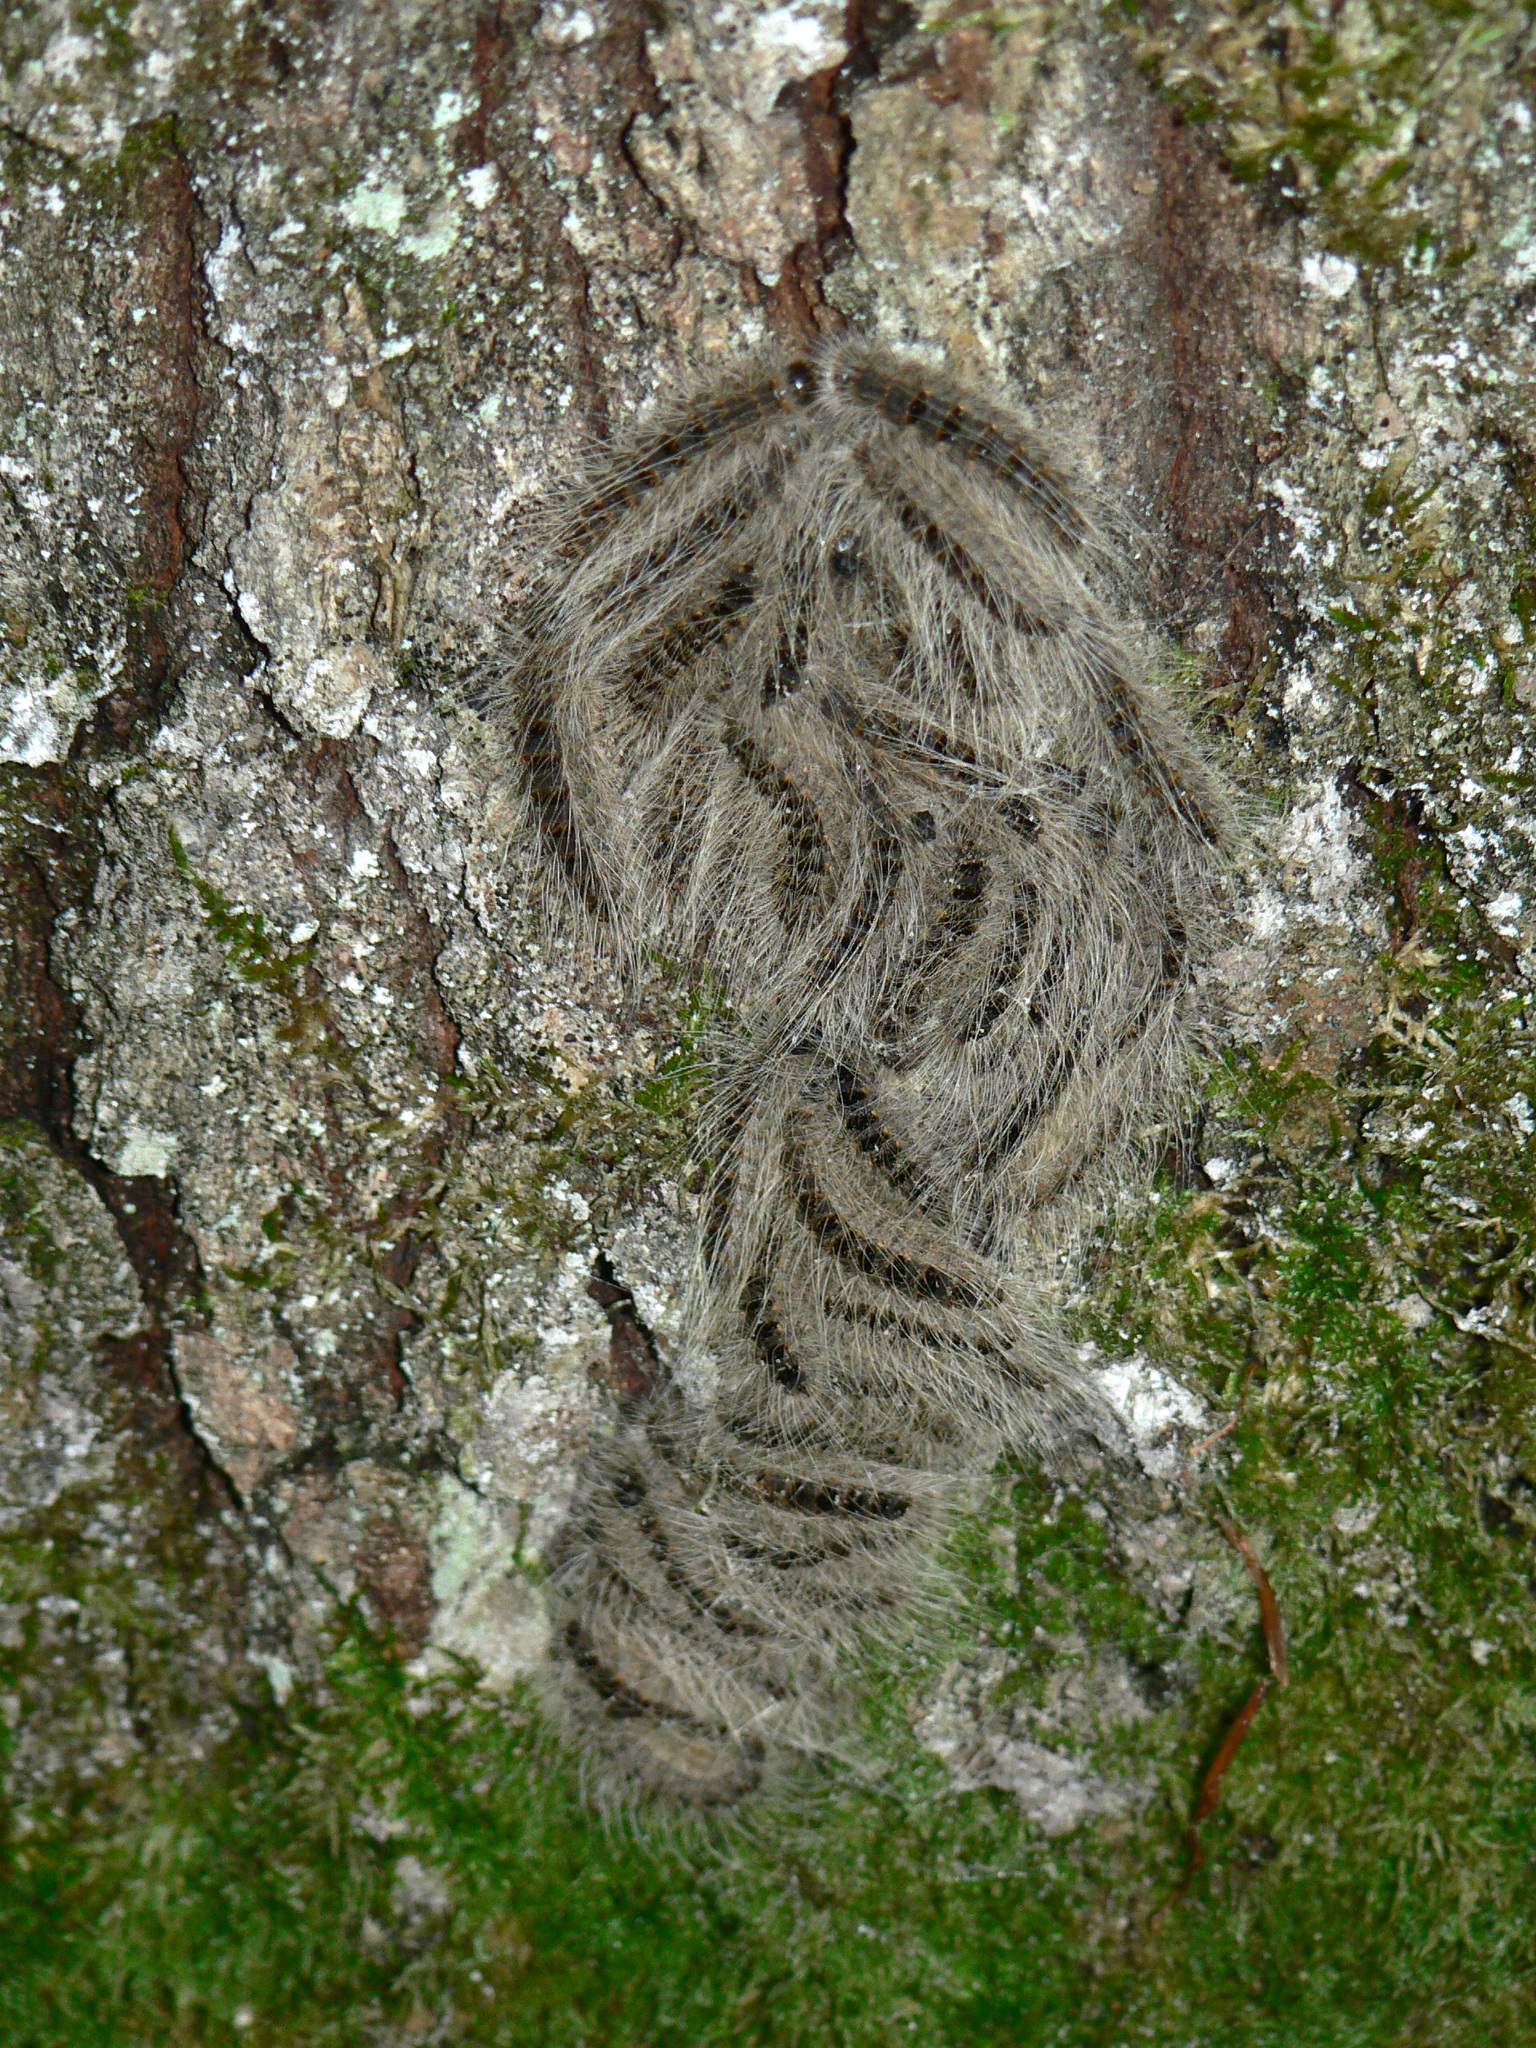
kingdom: Animalia
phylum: Arthropoda
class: Insecta
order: Lepidoptera
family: Notodontidae
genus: Thaumetopoea
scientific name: Thaumetopoea processionea
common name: Oak processionea
